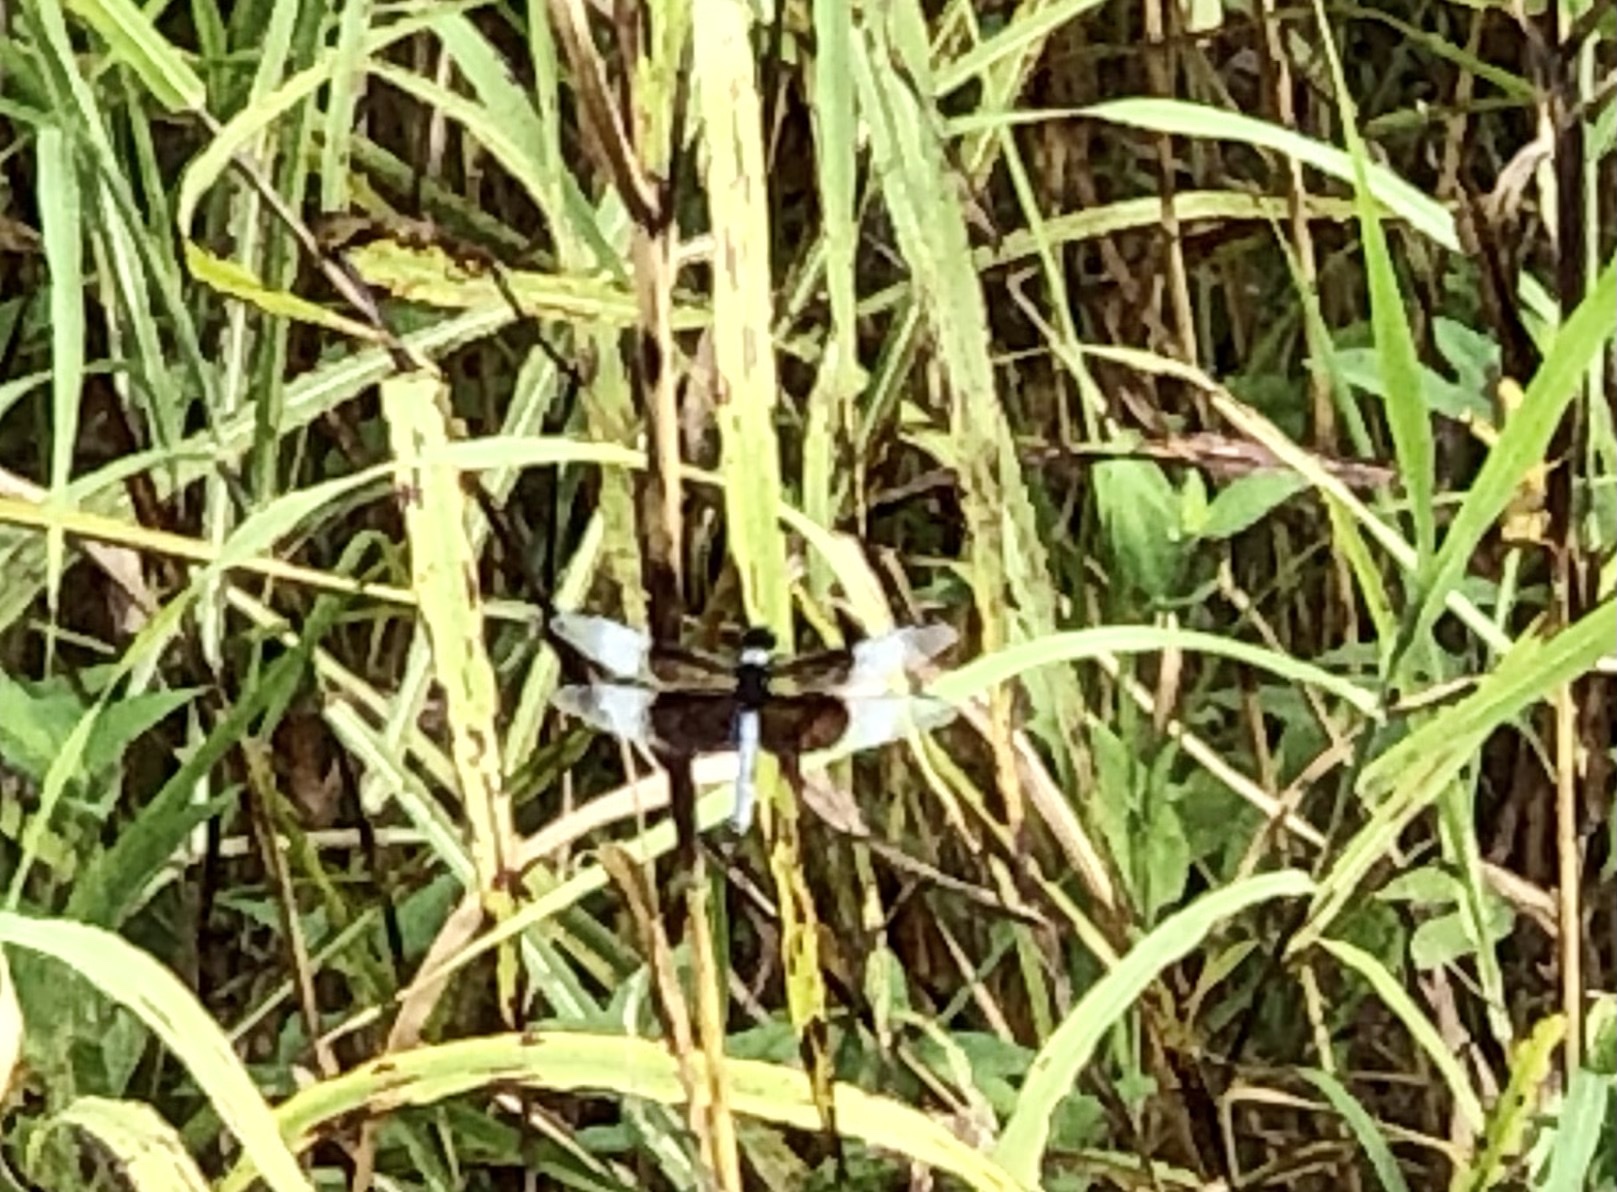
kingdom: Animalia
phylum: Arthropoda
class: Insecta
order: Odonata
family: Libellulidae
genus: Libellula
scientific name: Libellula luctuosa
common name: Widow skimmer
